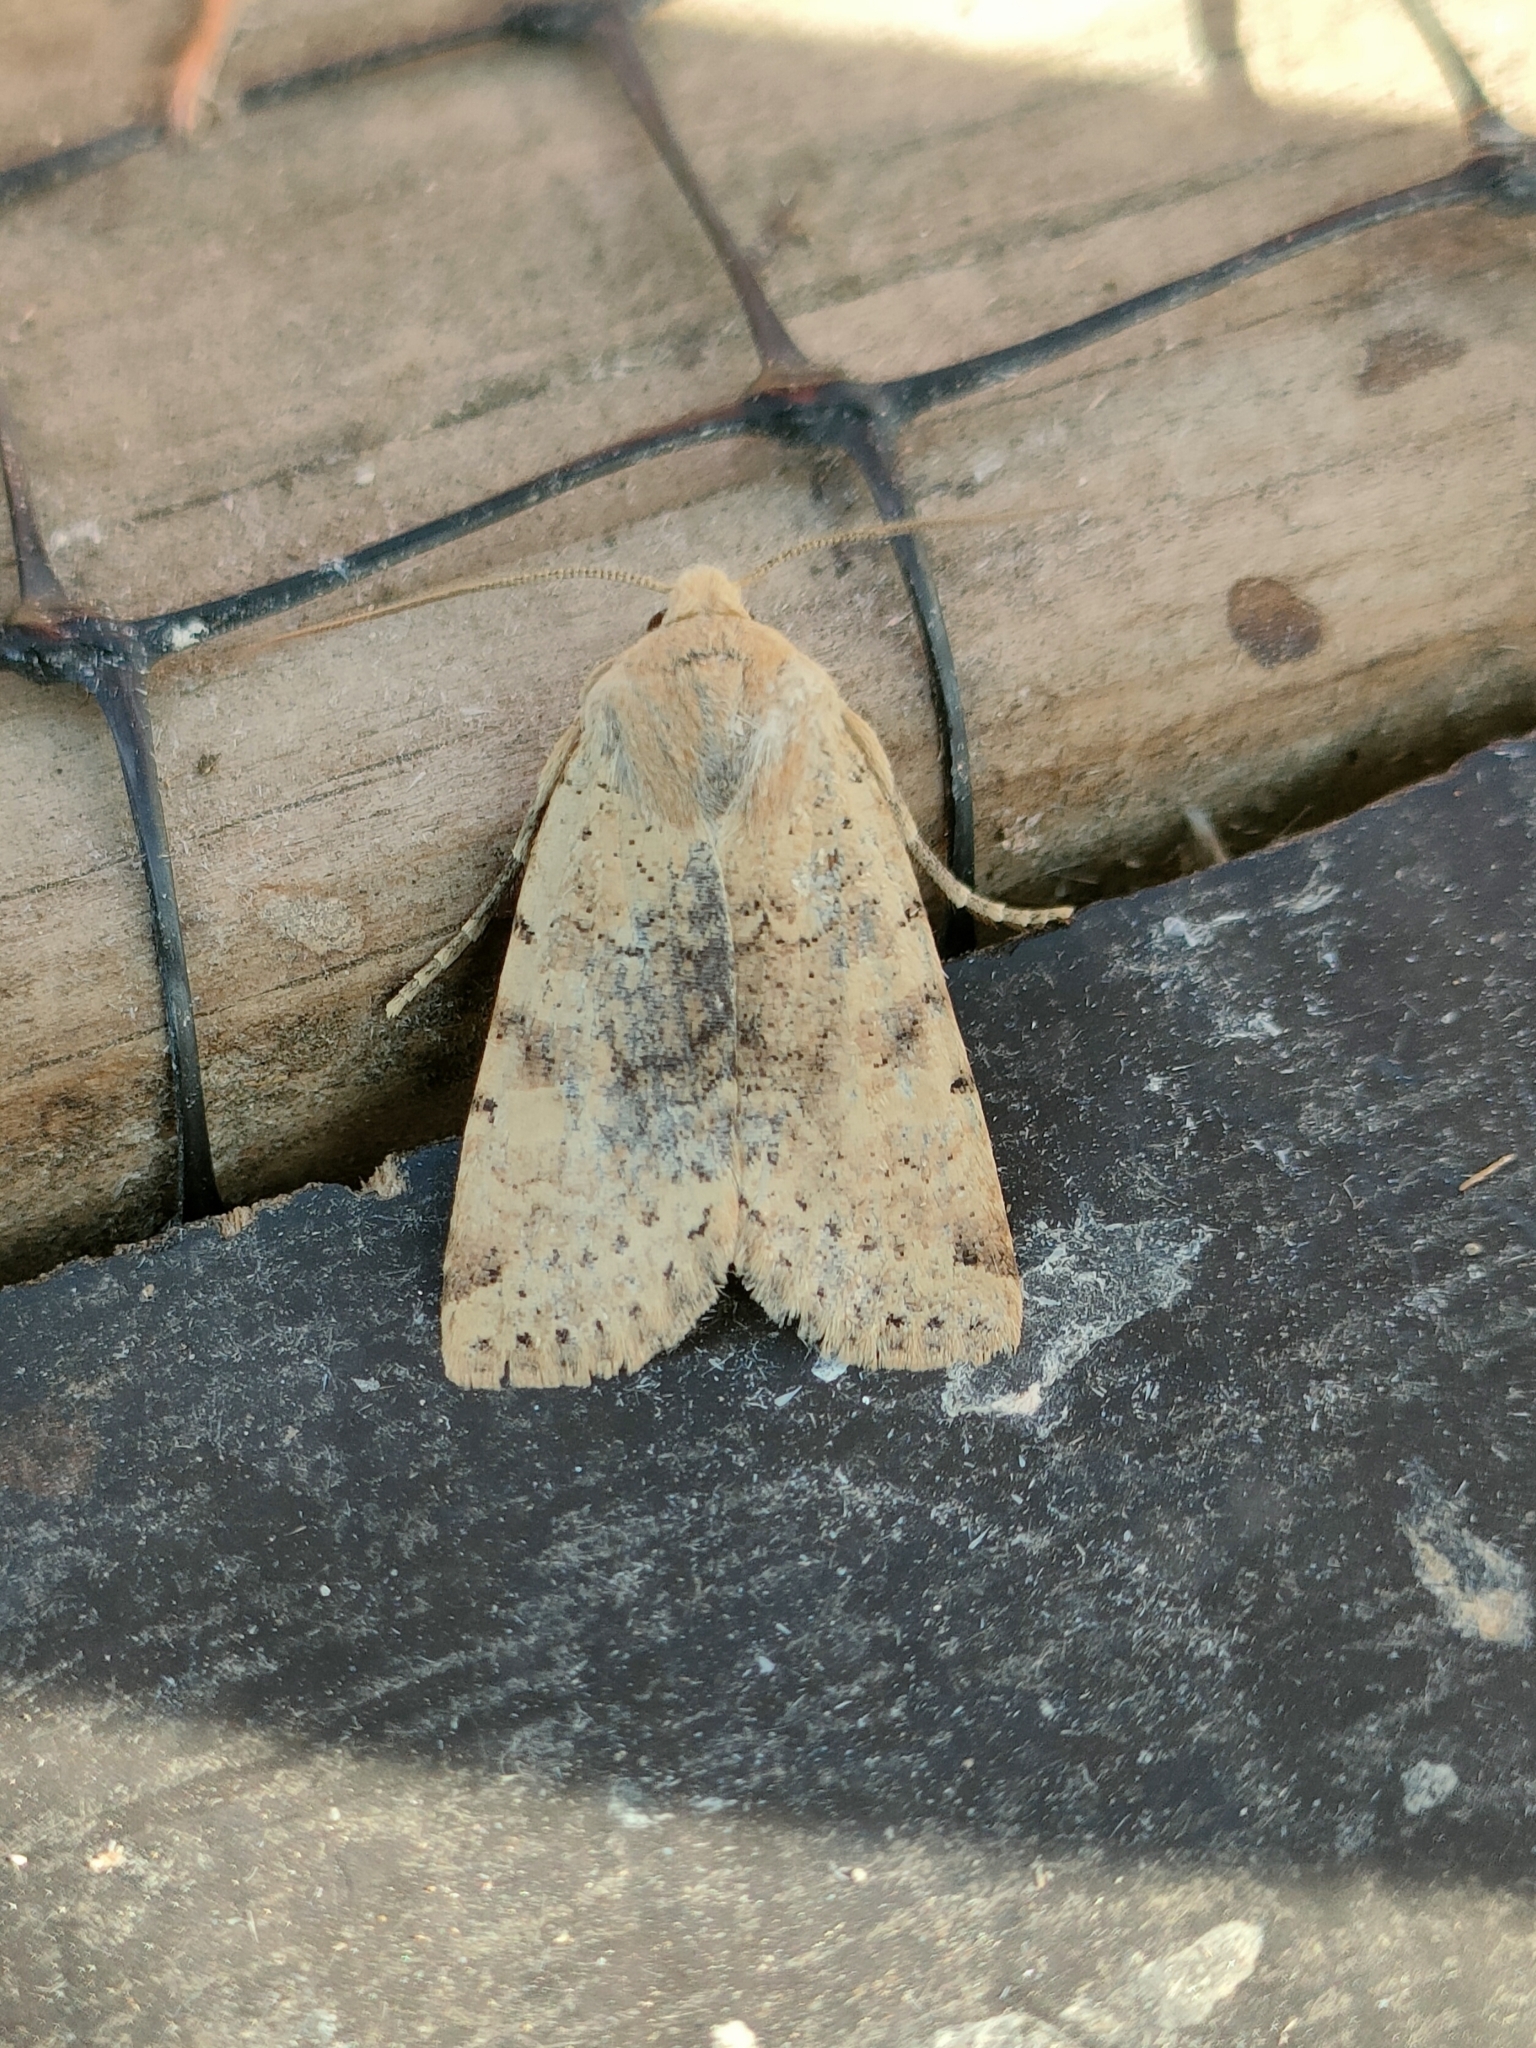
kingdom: Animalia
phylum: Arthropoda
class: Insecta
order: Lepidoptera
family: Noctuidae
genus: Conistra
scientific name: Conistra daubei
